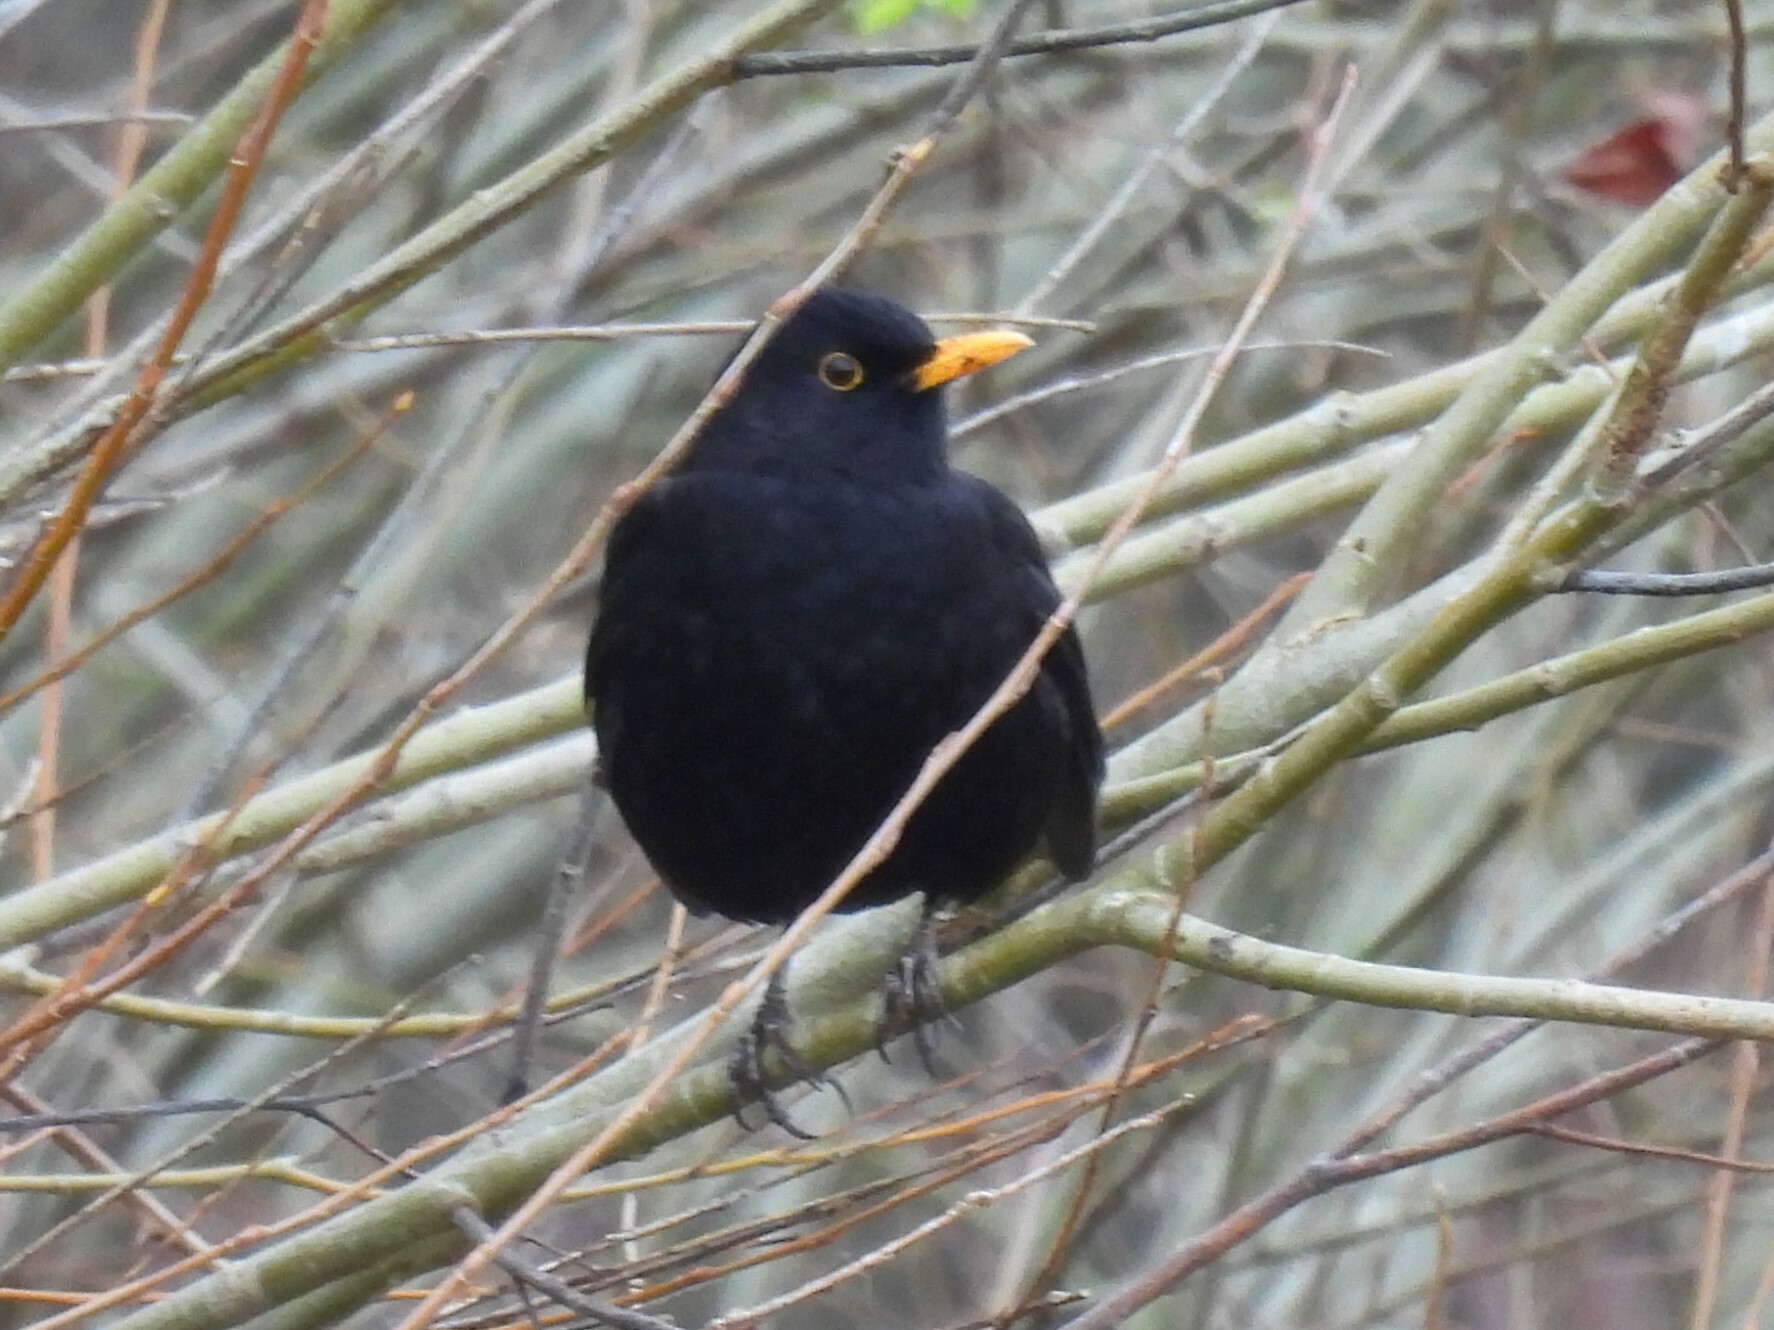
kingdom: Animalia
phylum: Chordata
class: Aves
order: Passeriformes
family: Turdidae
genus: Turdus
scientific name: Turdus merula
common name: Common blackbird
